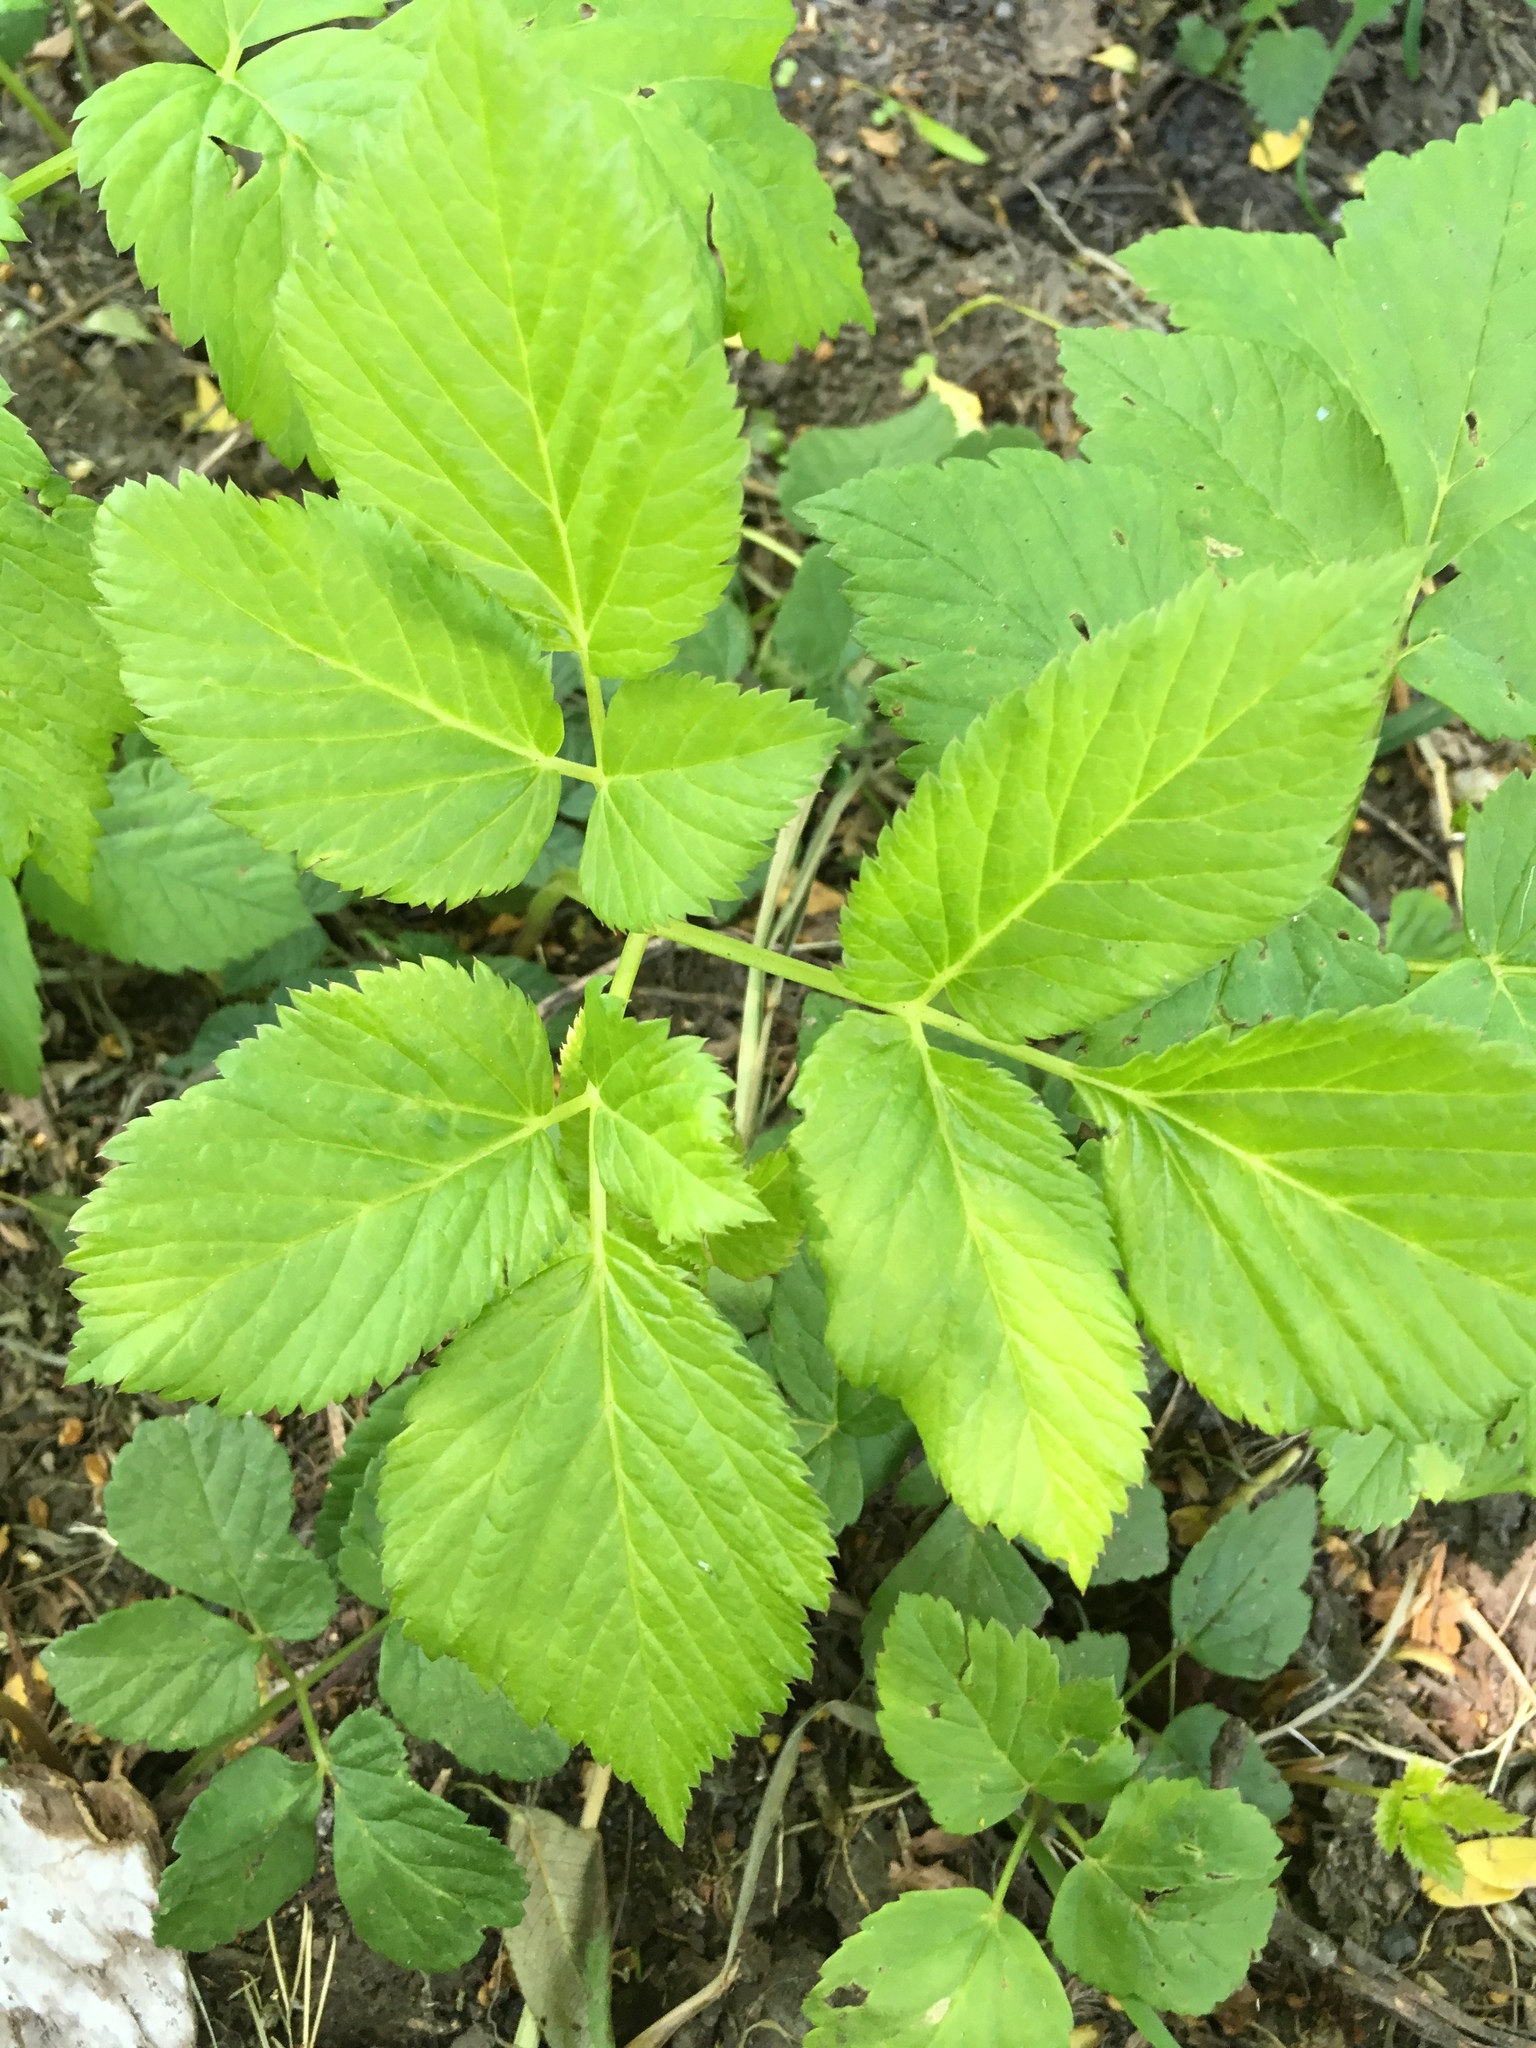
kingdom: Plantae
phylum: Tracheophyta
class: Magnoliopsida
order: Apiales
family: Apiaceae
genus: Aegopodium
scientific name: Aegopodium podagraria
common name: Ground-elder
